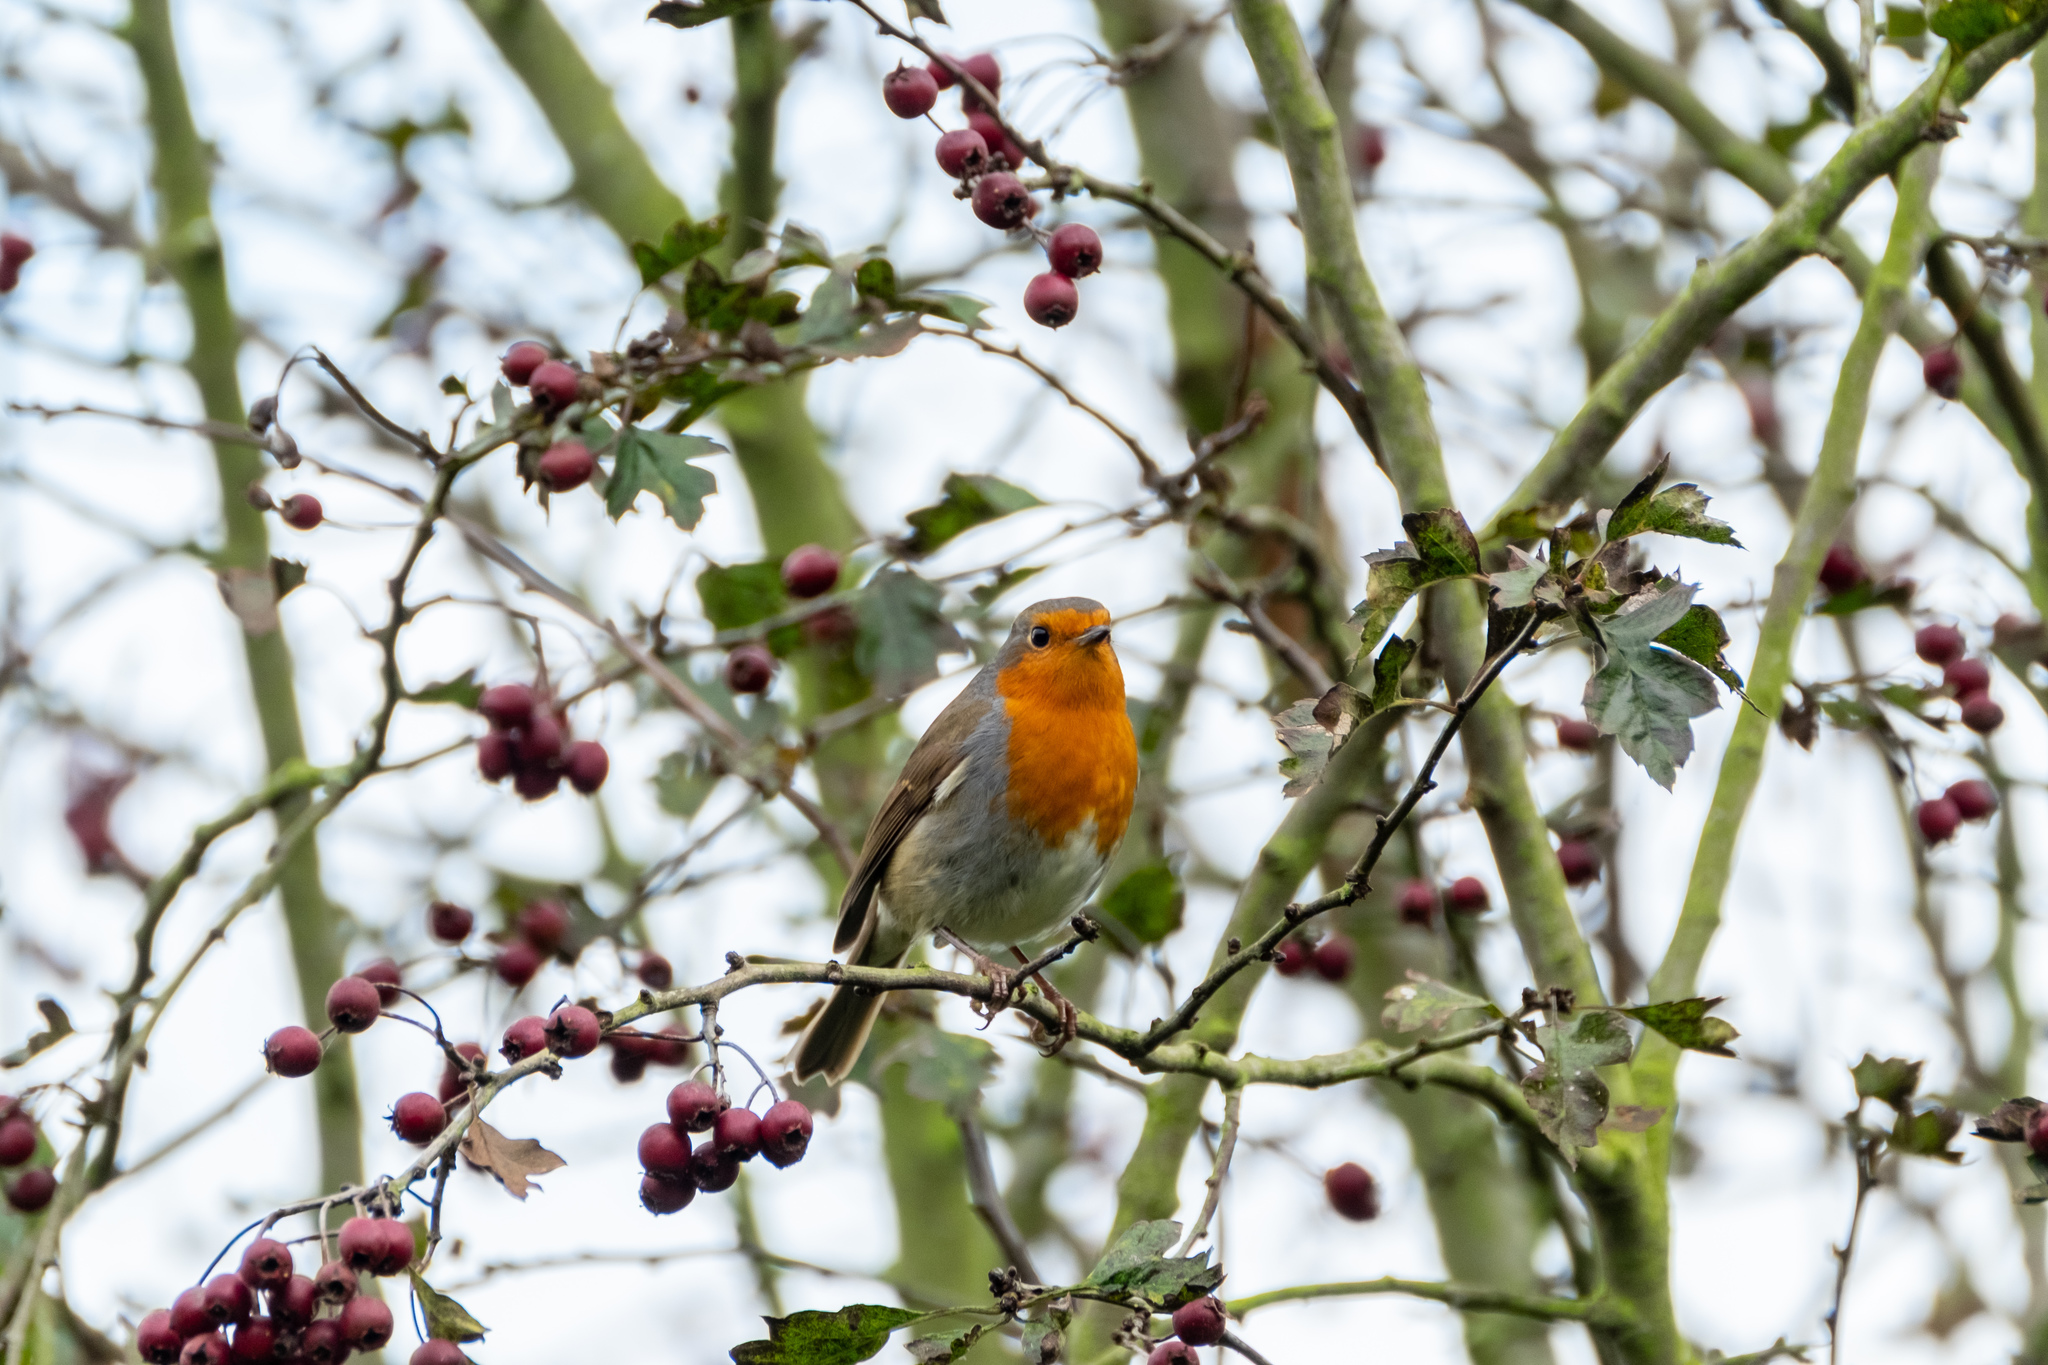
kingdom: Animalia
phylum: Chordata
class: Aves
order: Passeriformes
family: Muscicapidae
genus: Erithacus
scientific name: Erithacus rubecula
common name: European robin
